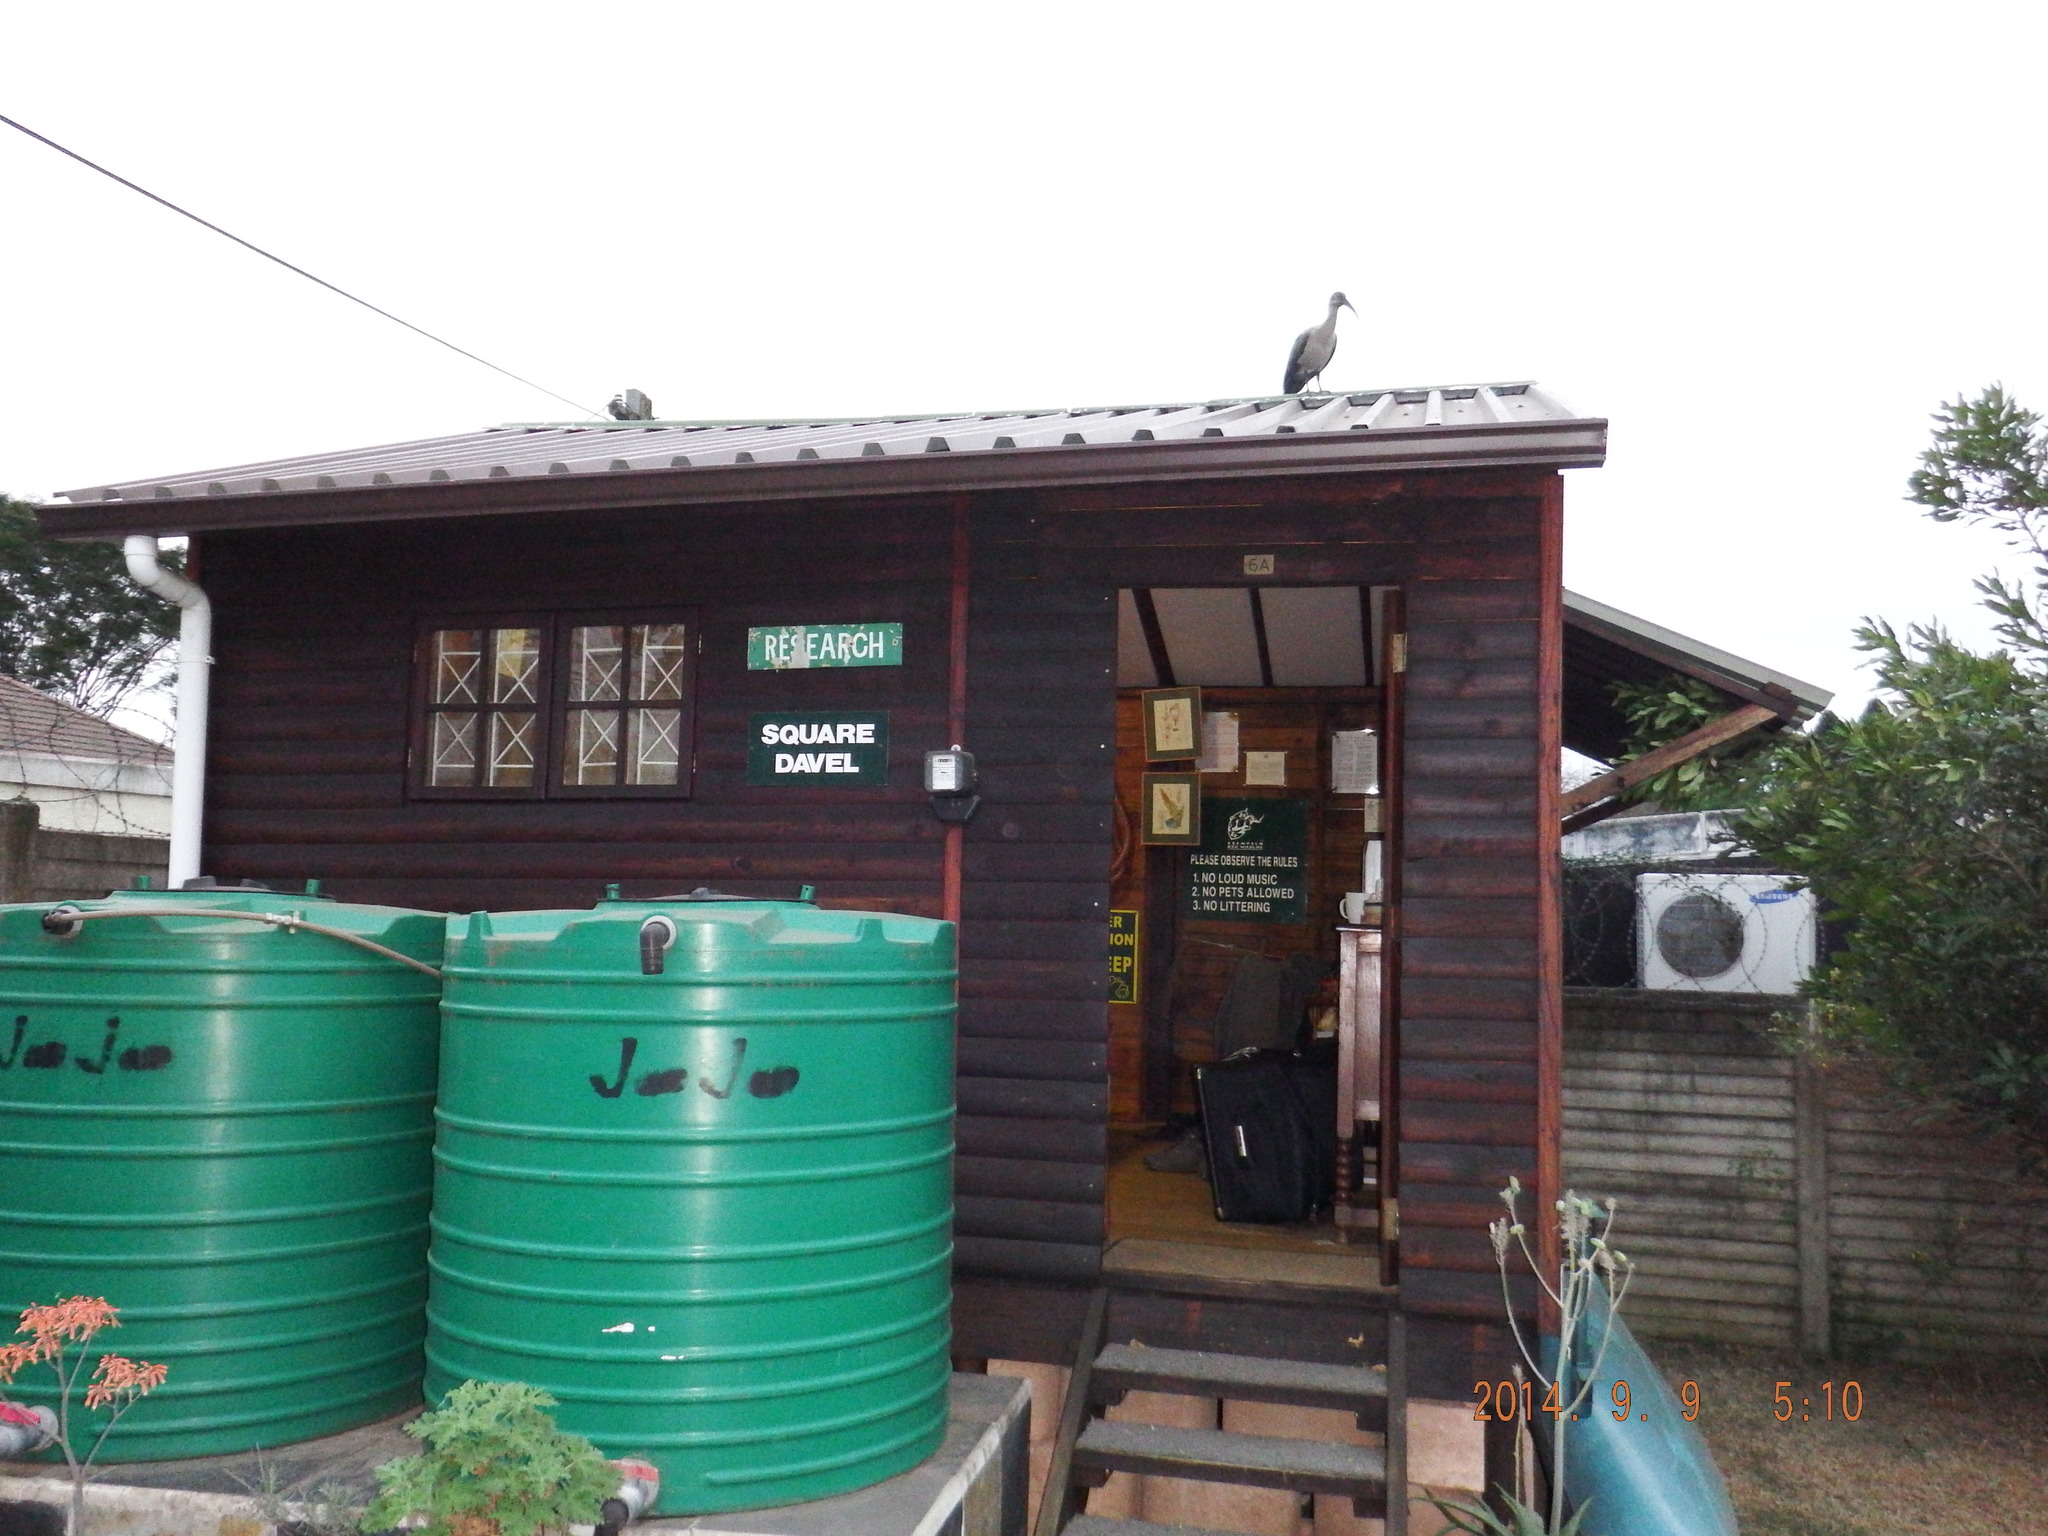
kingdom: Animalia
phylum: Chordata
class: Aves
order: Pelecaniformes
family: Threskiornithidae
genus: Bostrychia
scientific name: Bostrychia hagedash
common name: Hadada ibis
